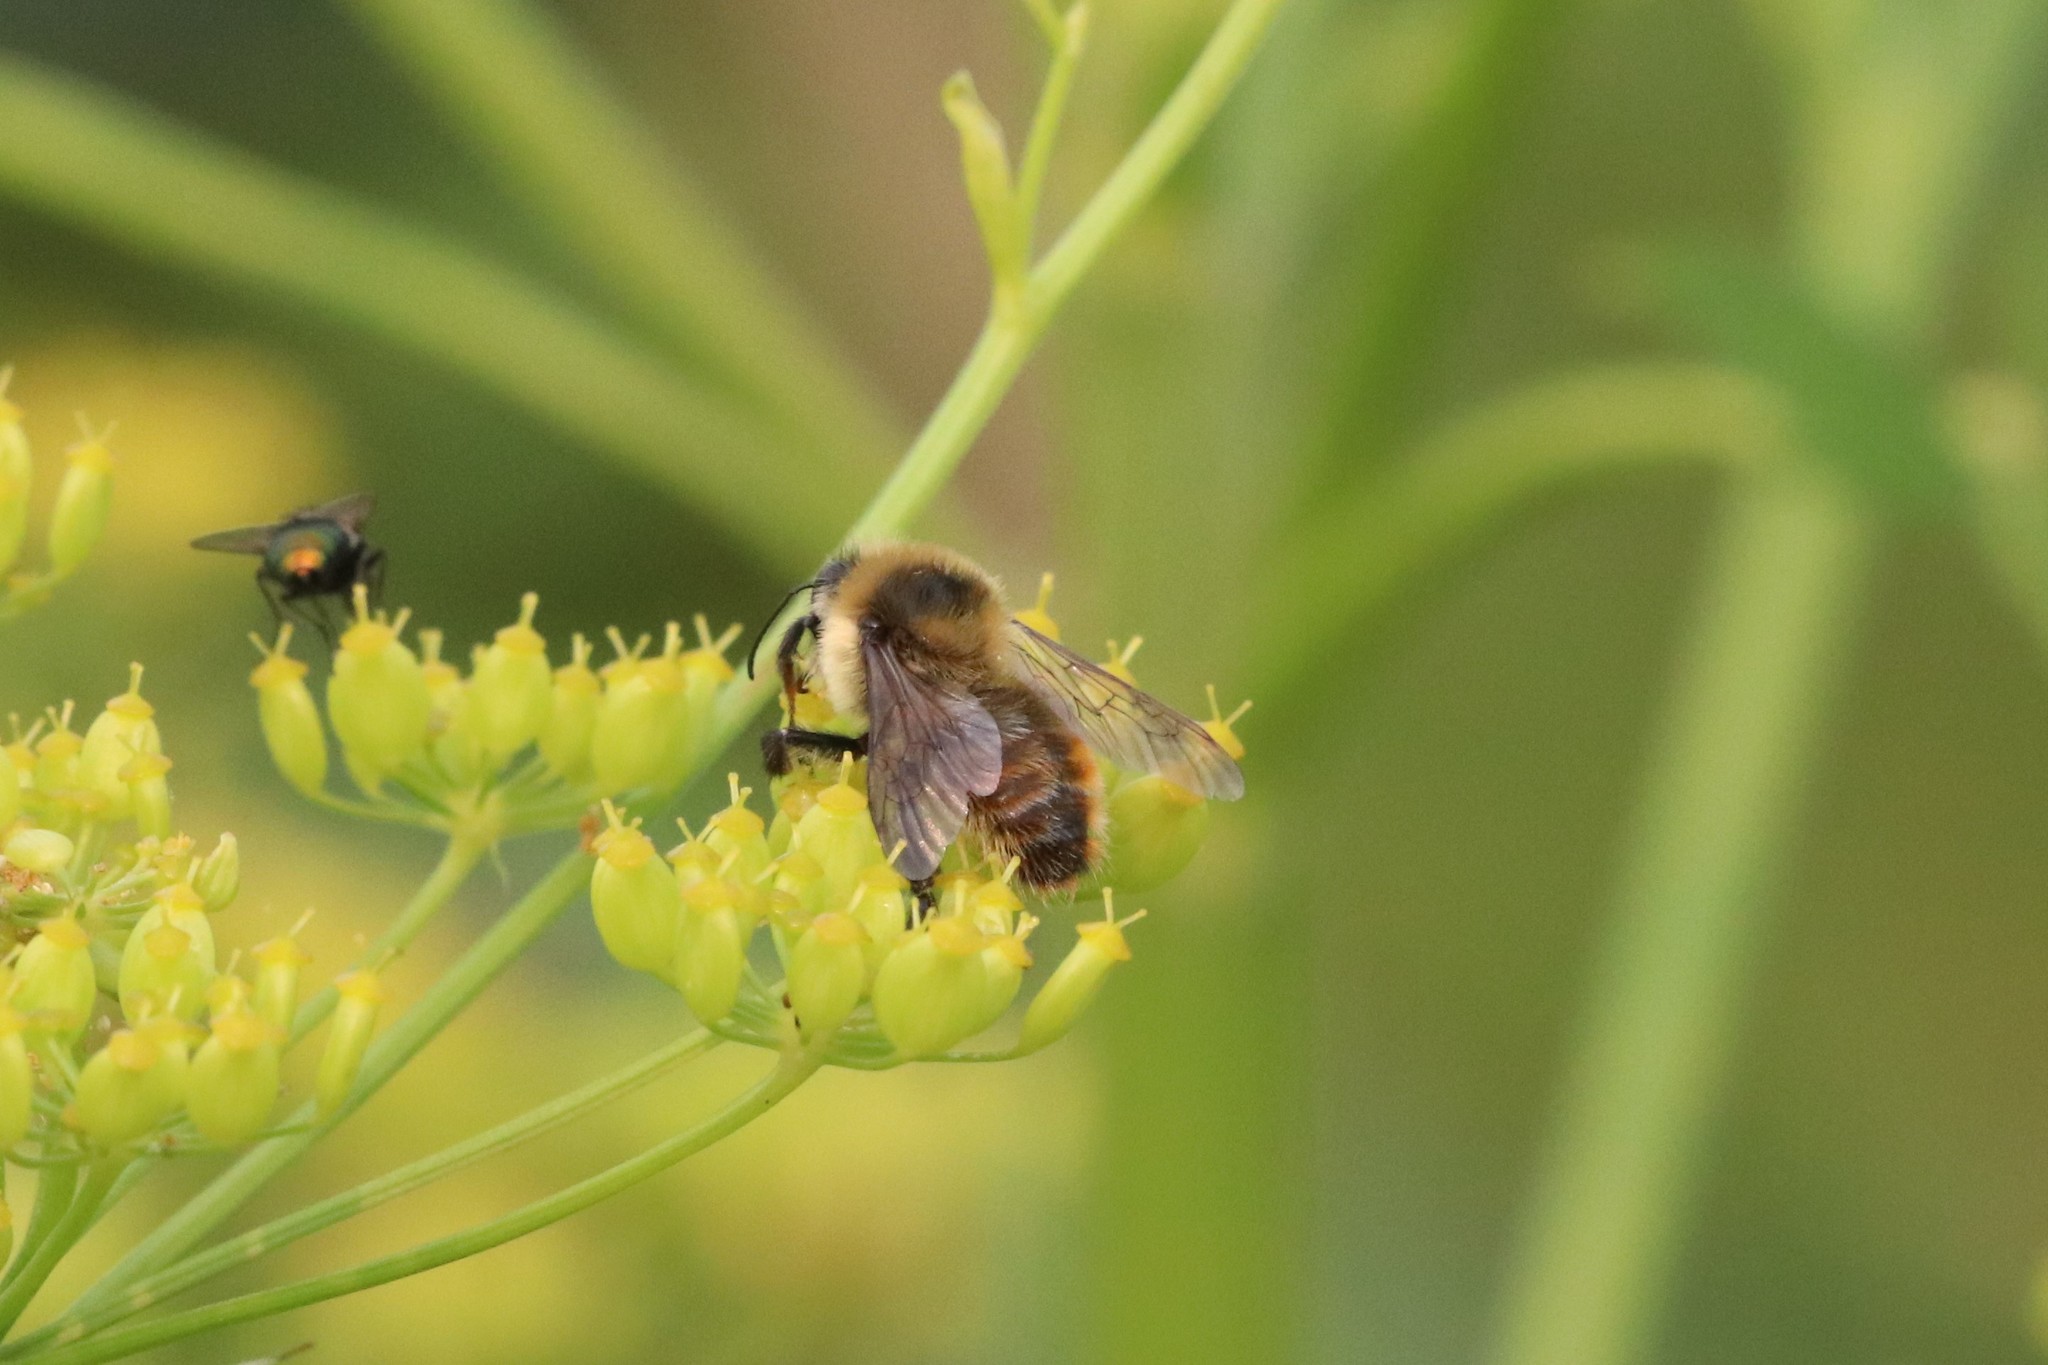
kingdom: Animalia
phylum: Arthropoda
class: Insecta
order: Hymenoptera
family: Apidae
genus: Bombus
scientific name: Bombus rufocinctus
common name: Red-belted bumble bee
